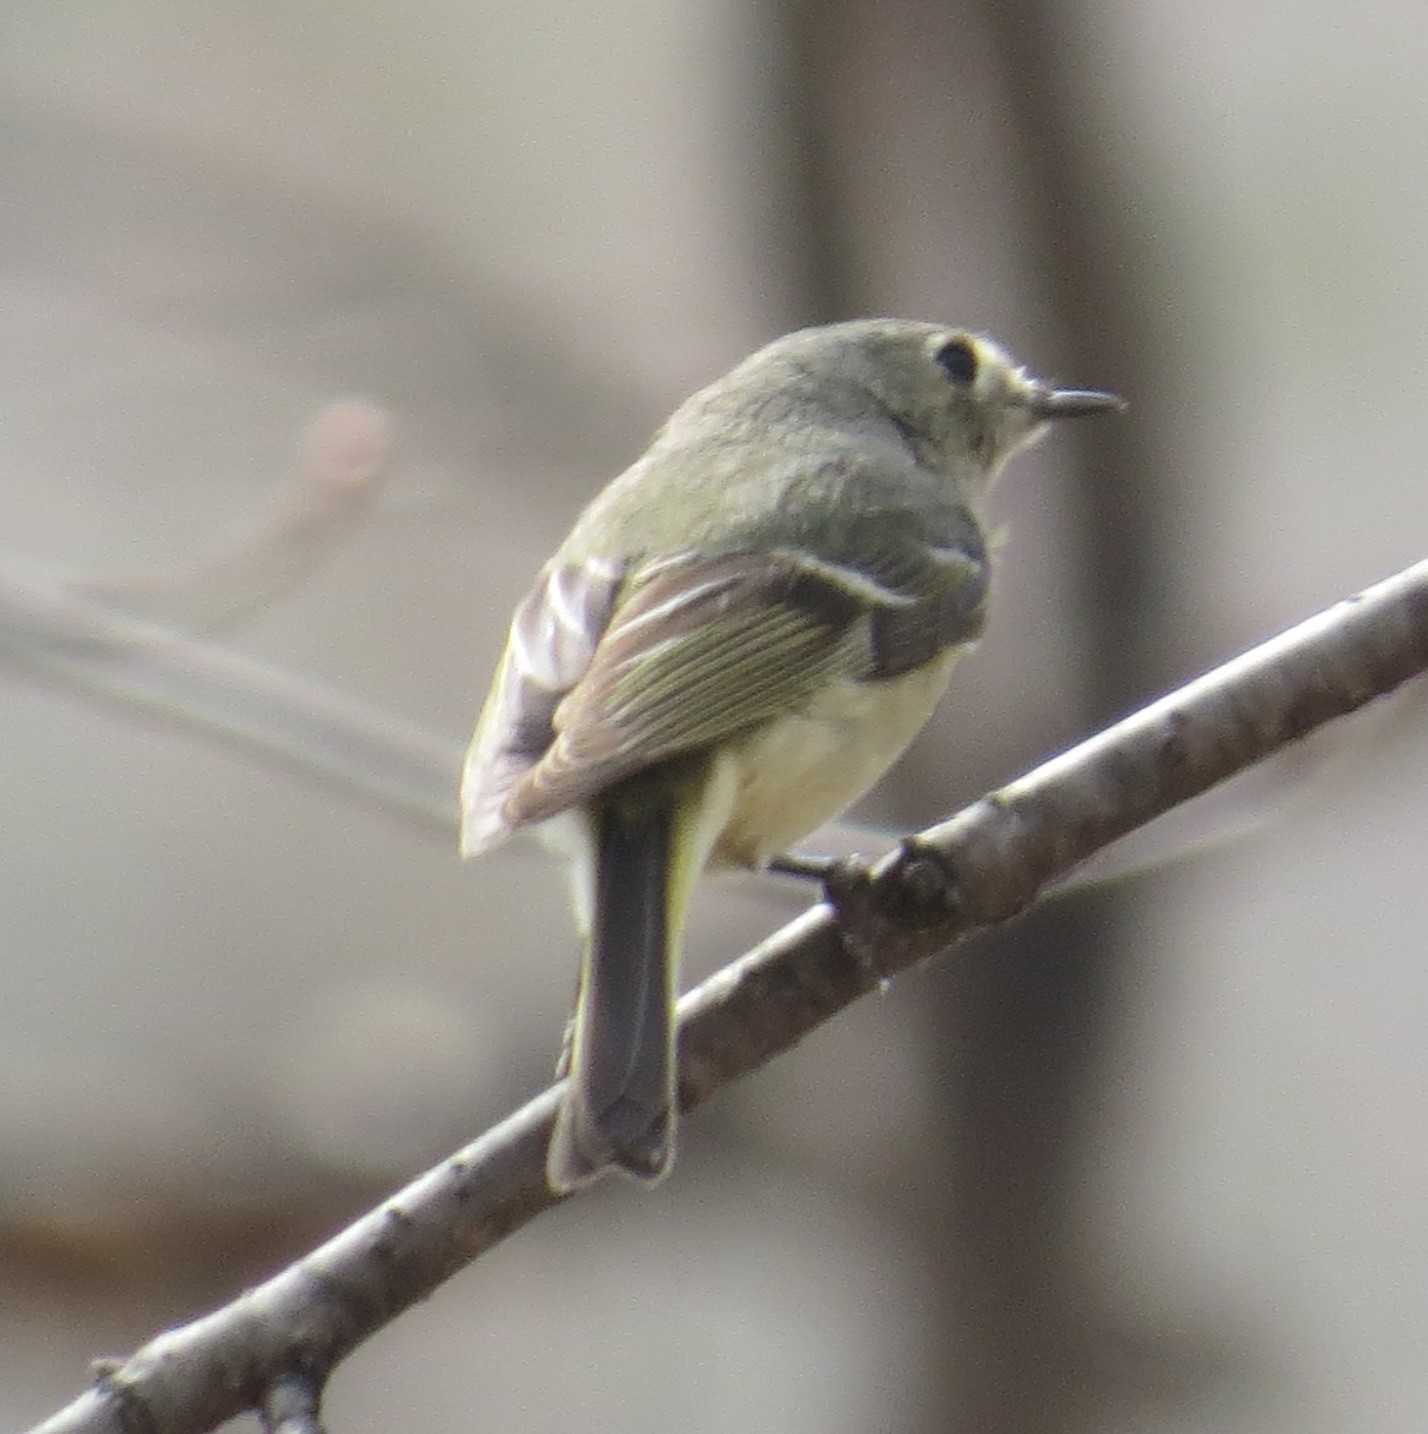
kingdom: Animalia
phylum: Chordata
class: Aves
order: Passeriformes
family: Regulidae
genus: Regulus
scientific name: Regulus calendula
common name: Ruby-crowned kinglet
